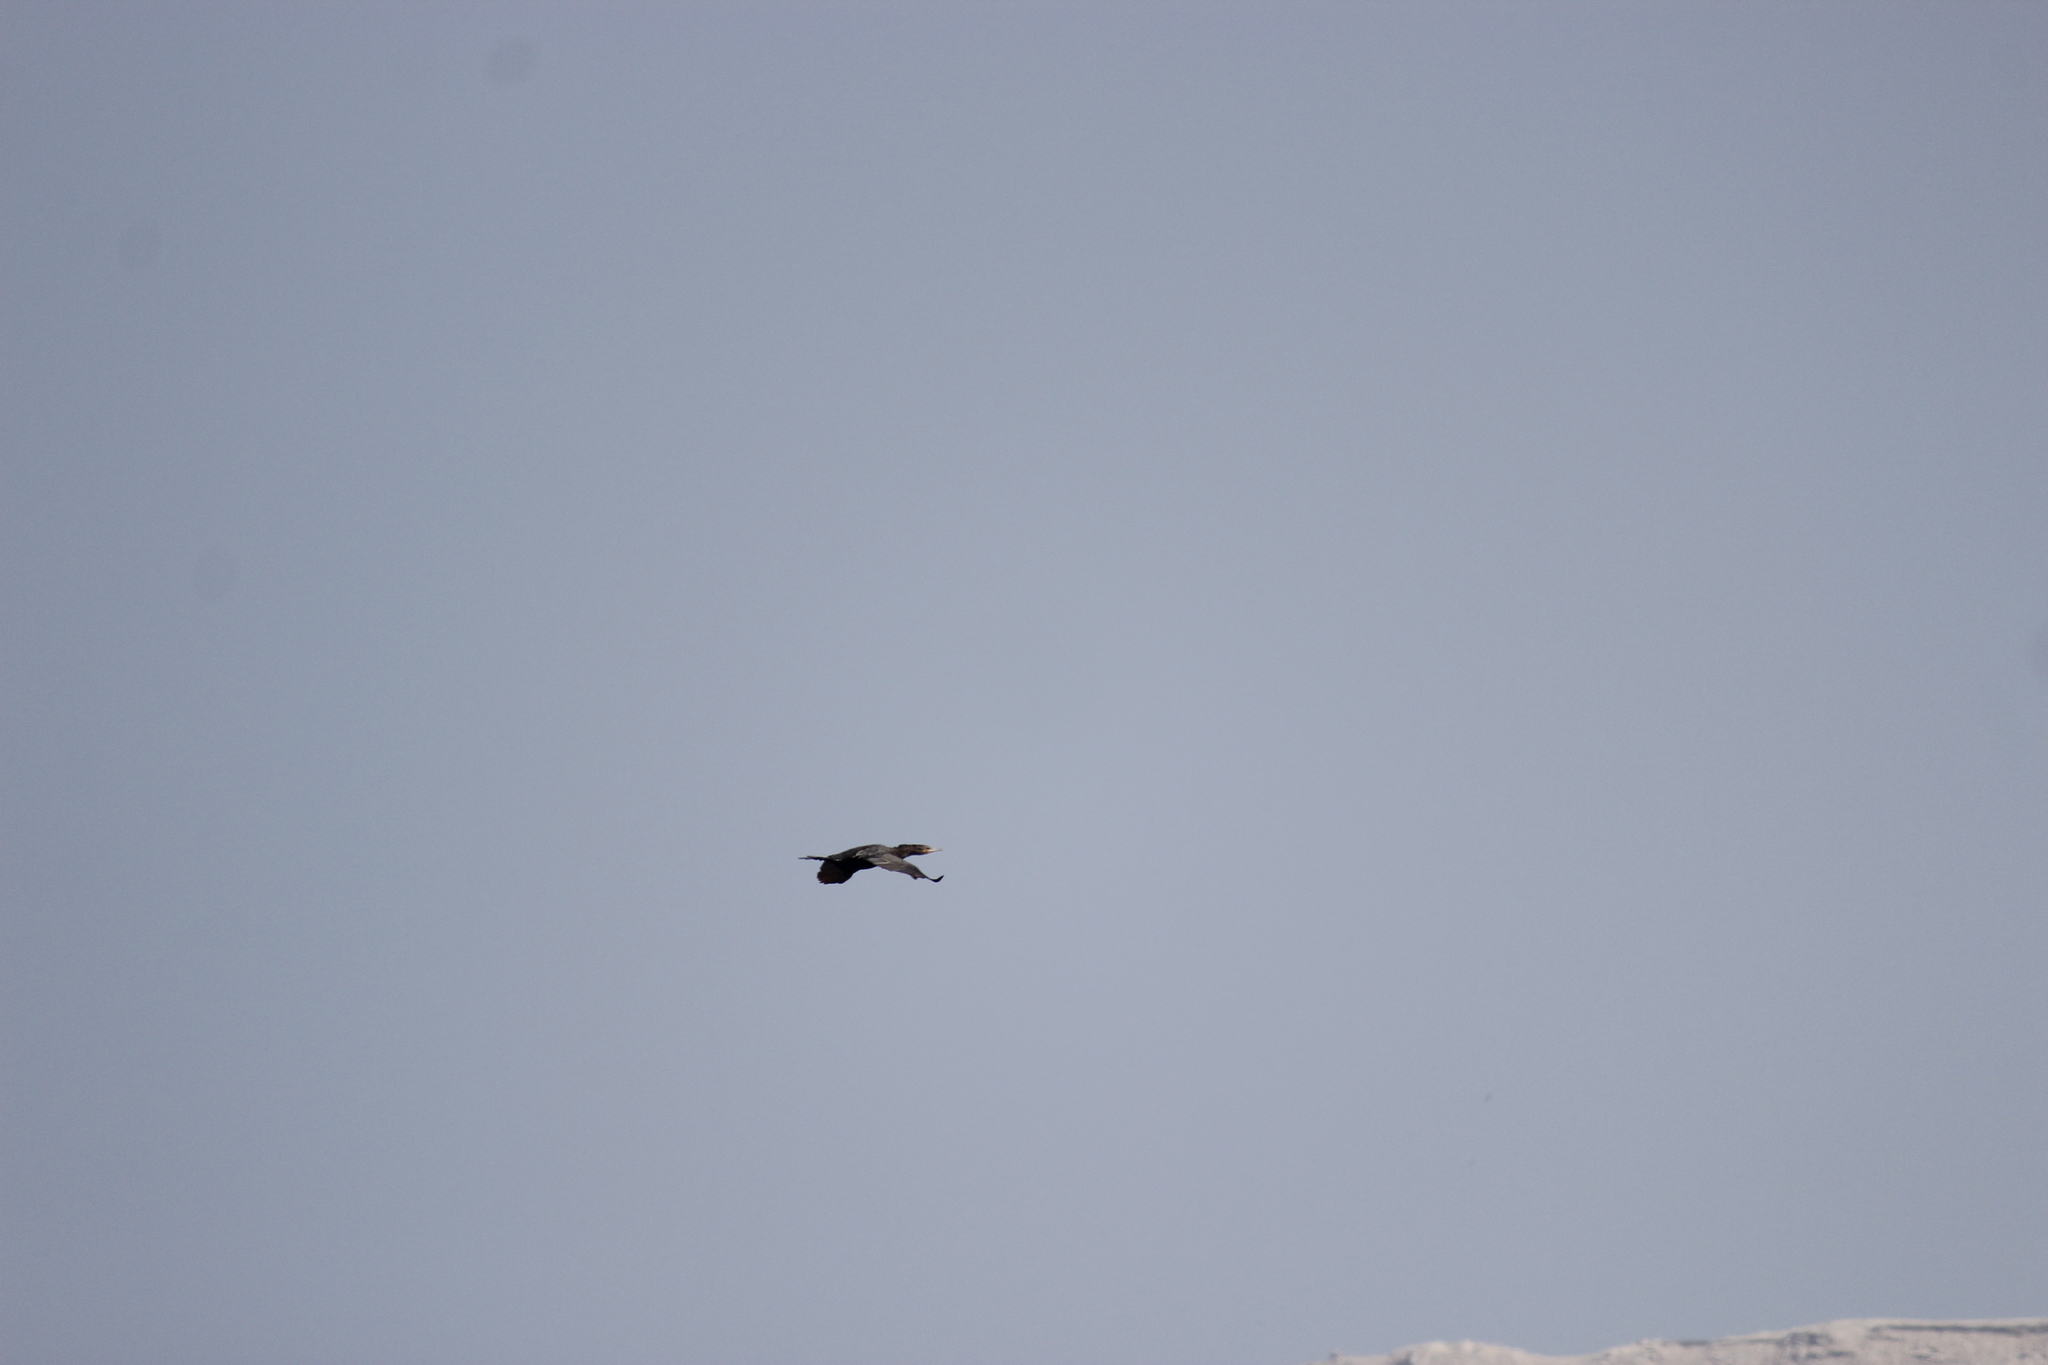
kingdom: Animalia
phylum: Chordata
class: Aves
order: Suliformes
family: Phalacrocoracidae
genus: Phalacrocorax
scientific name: Phalacrocorax brasilianus
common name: Neotropic cormorant
